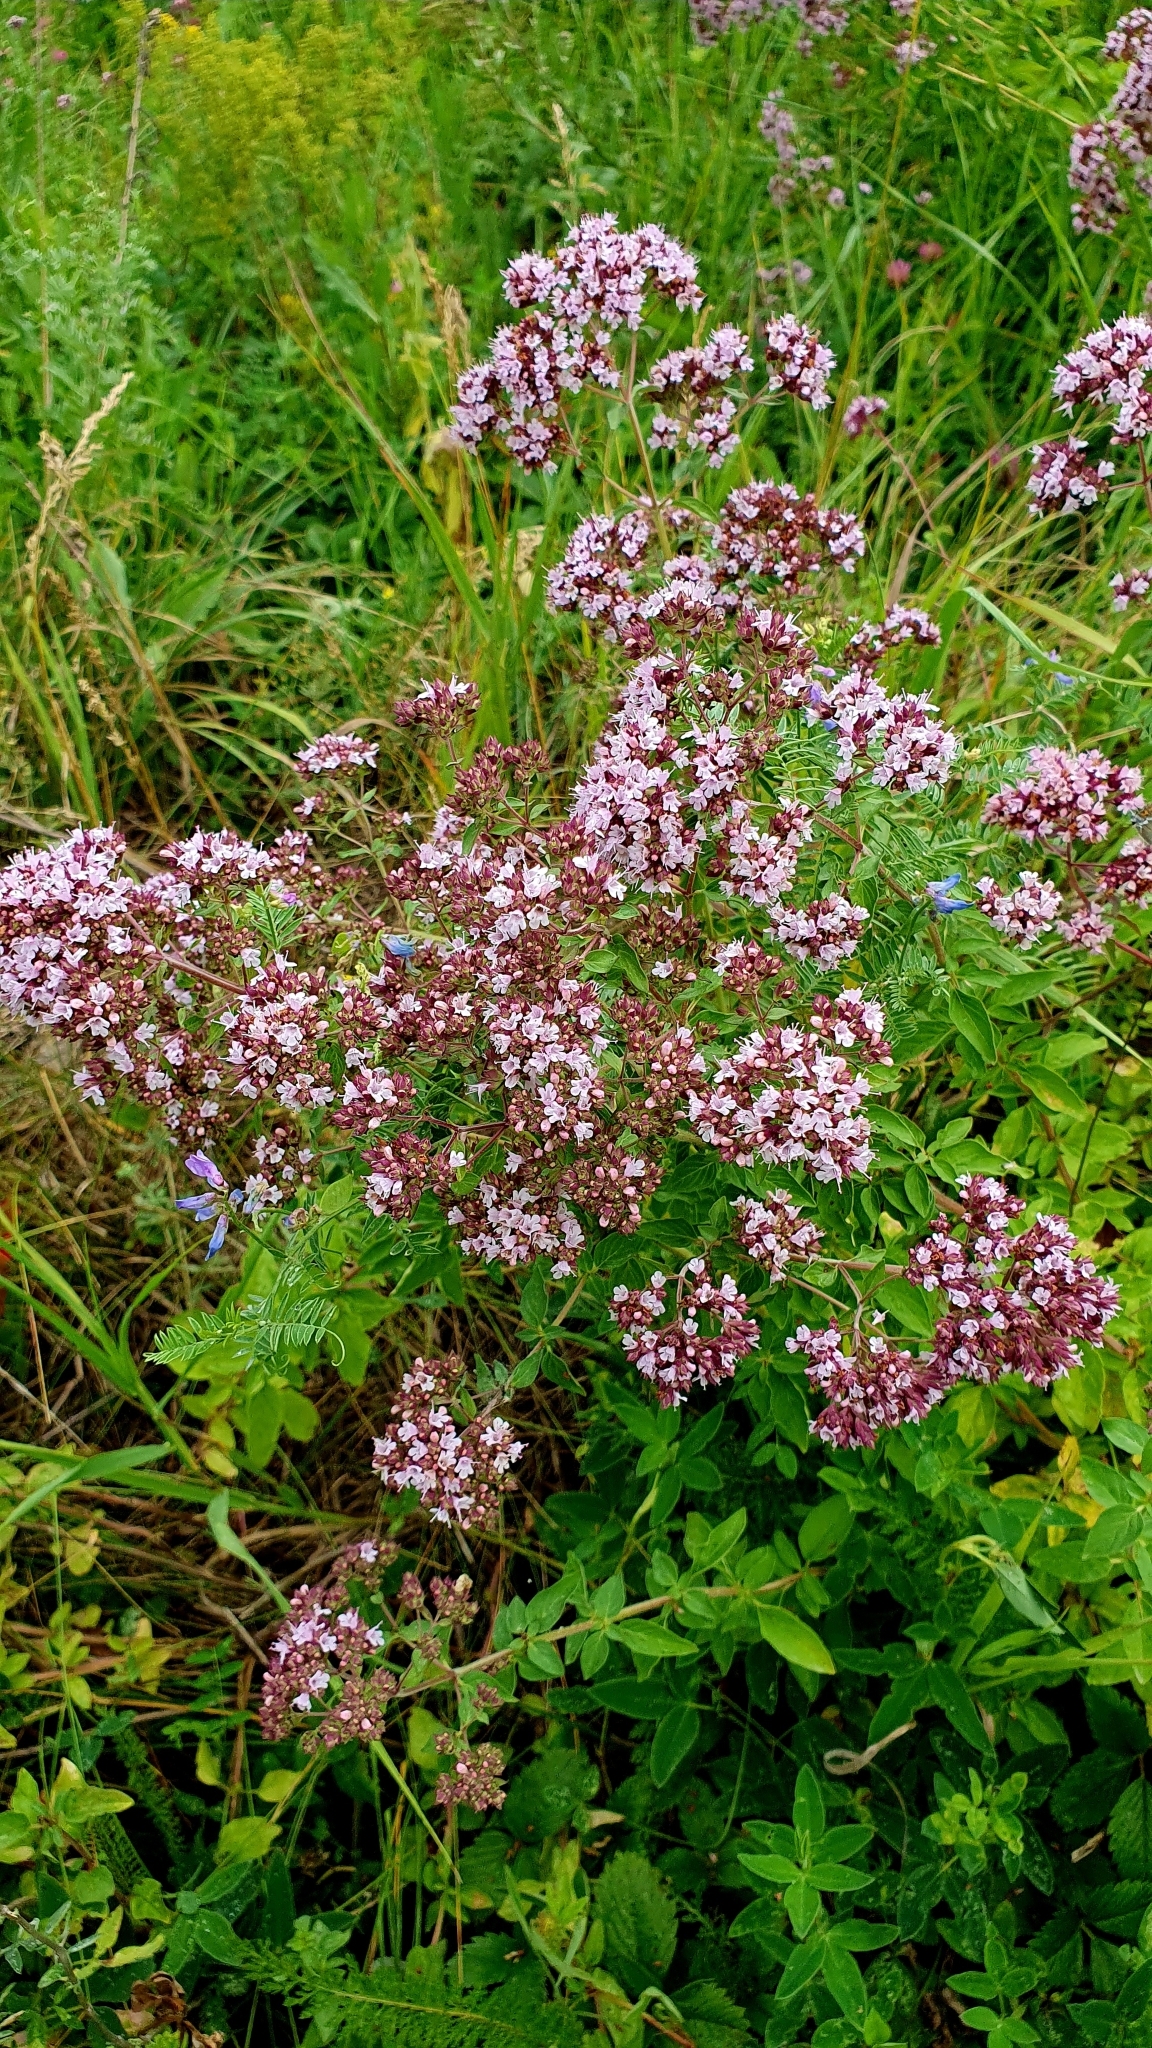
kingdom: Plantae
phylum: Tracheophyta
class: Magnoliopsida
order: Lamiales
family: Lamiaceae
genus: Origanum
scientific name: Origanum vulgare
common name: Wild marjoram
